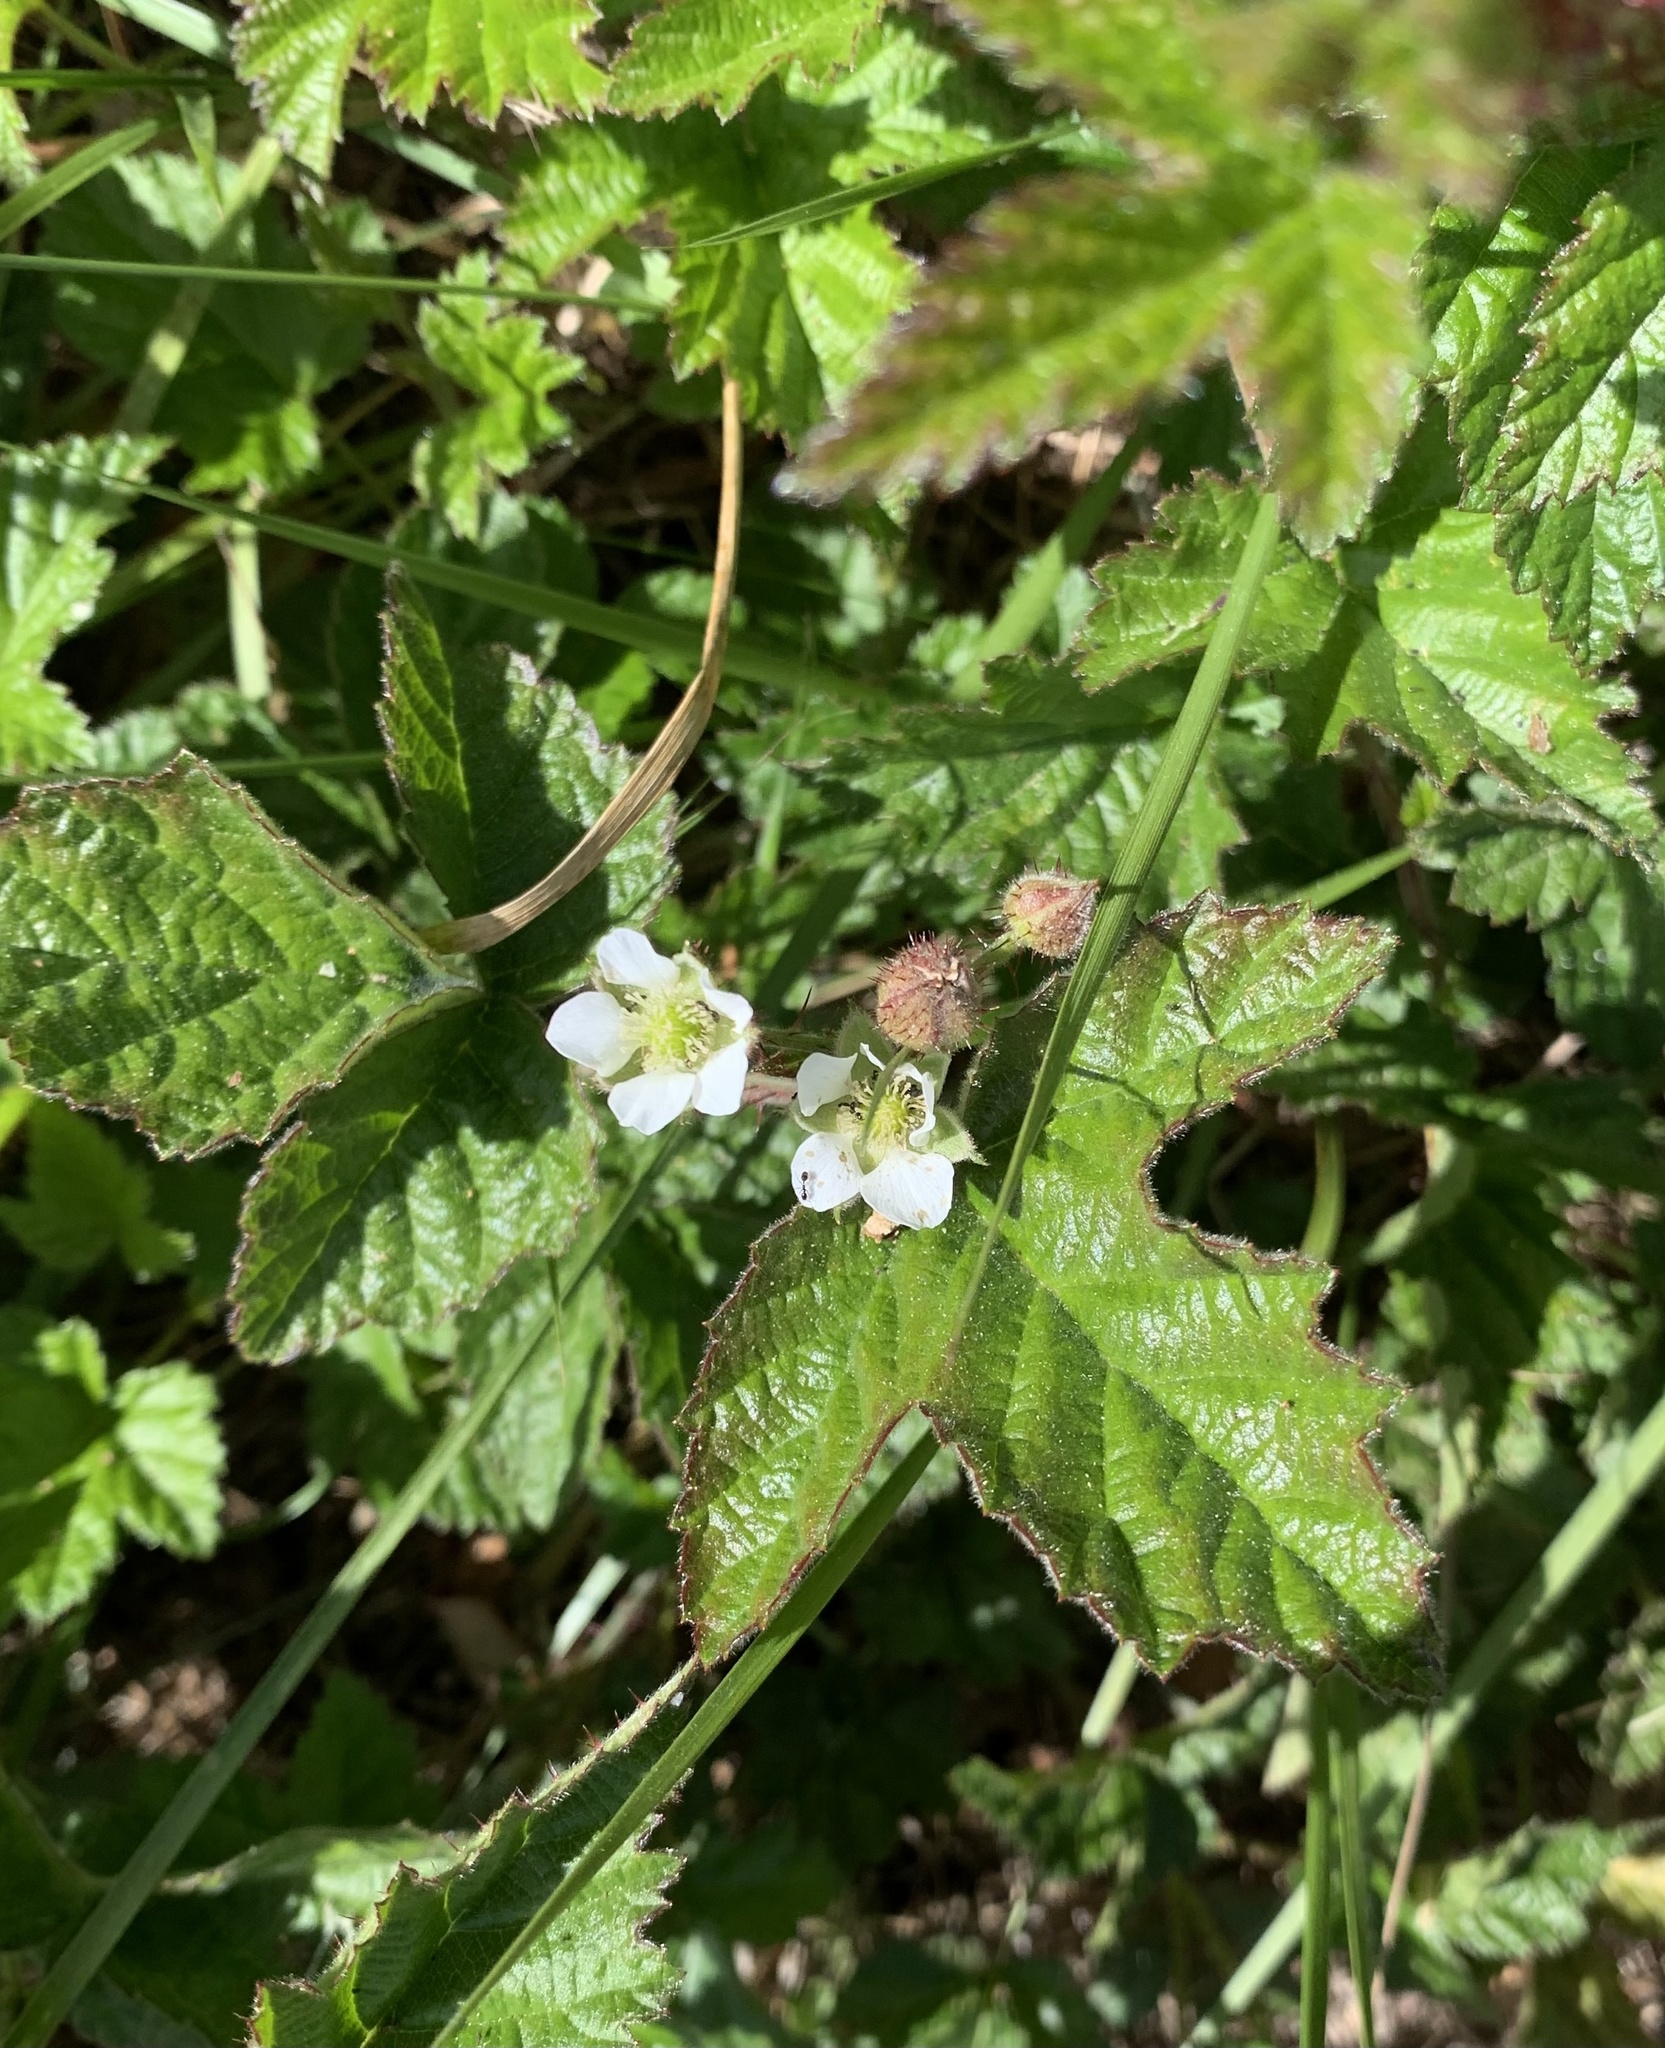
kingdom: Plantae
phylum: Tracheophyta
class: Magnoliopsida
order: Rosales
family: Rosaceae
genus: Rubus
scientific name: Rubus ursinus
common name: Pacific blackberry
